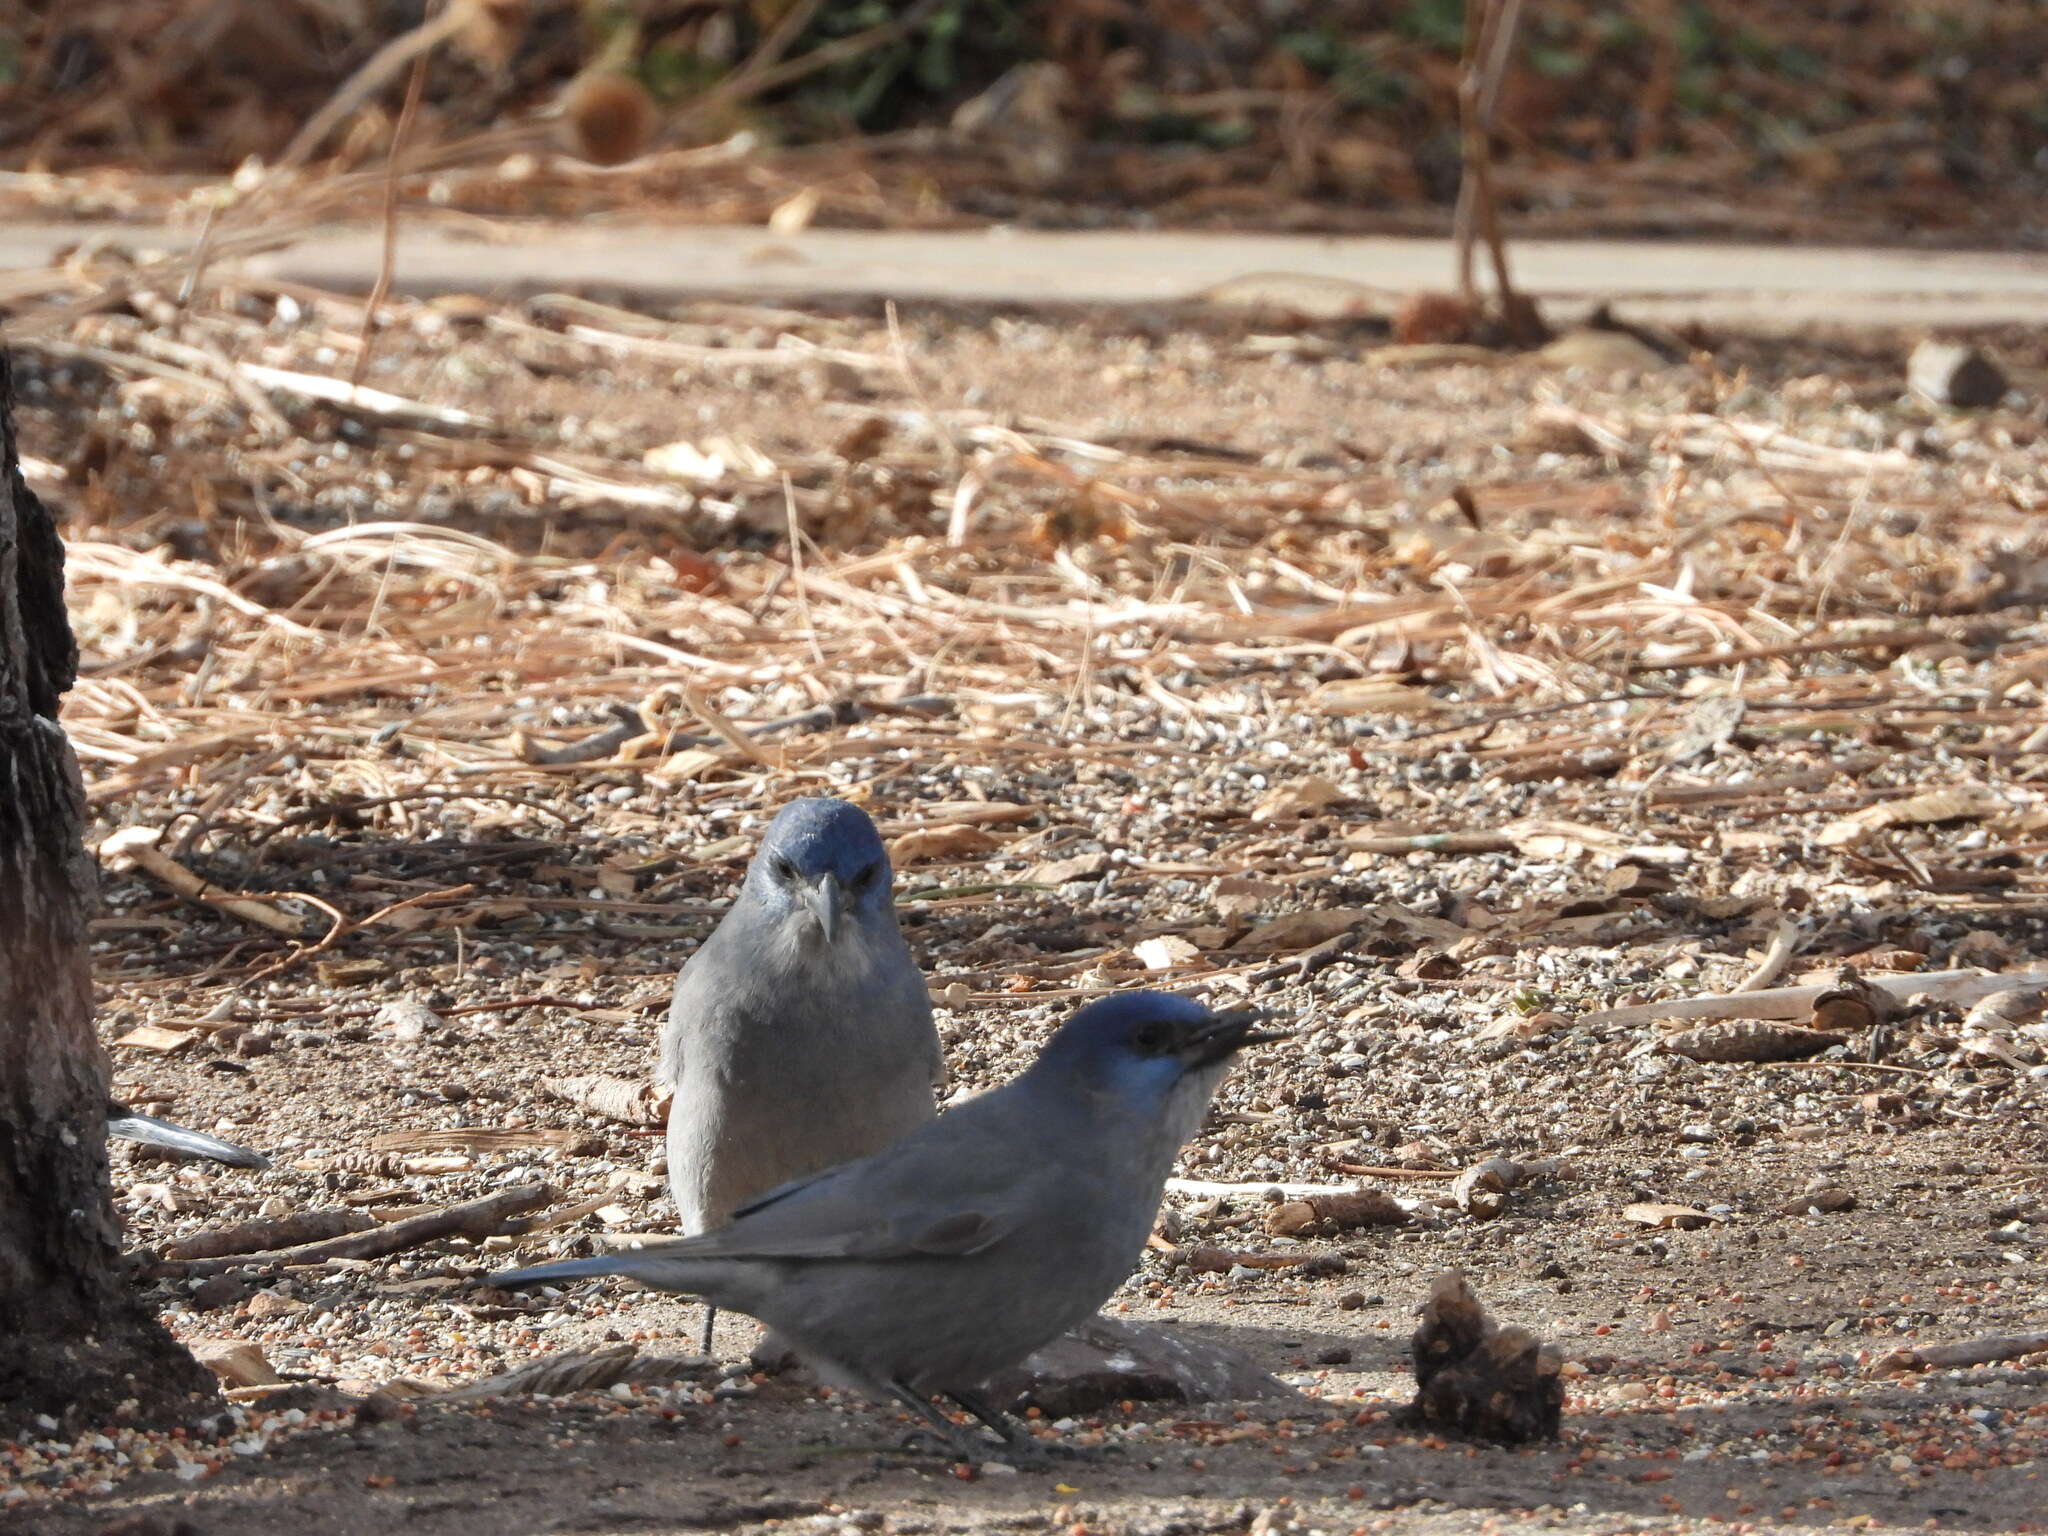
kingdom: Animalia
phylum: Chordata
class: Aves
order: Passeriformes
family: Corvidae
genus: Gymnorhinus
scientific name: Gymnorhinus cyanocephalus
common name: Pinyon jay
